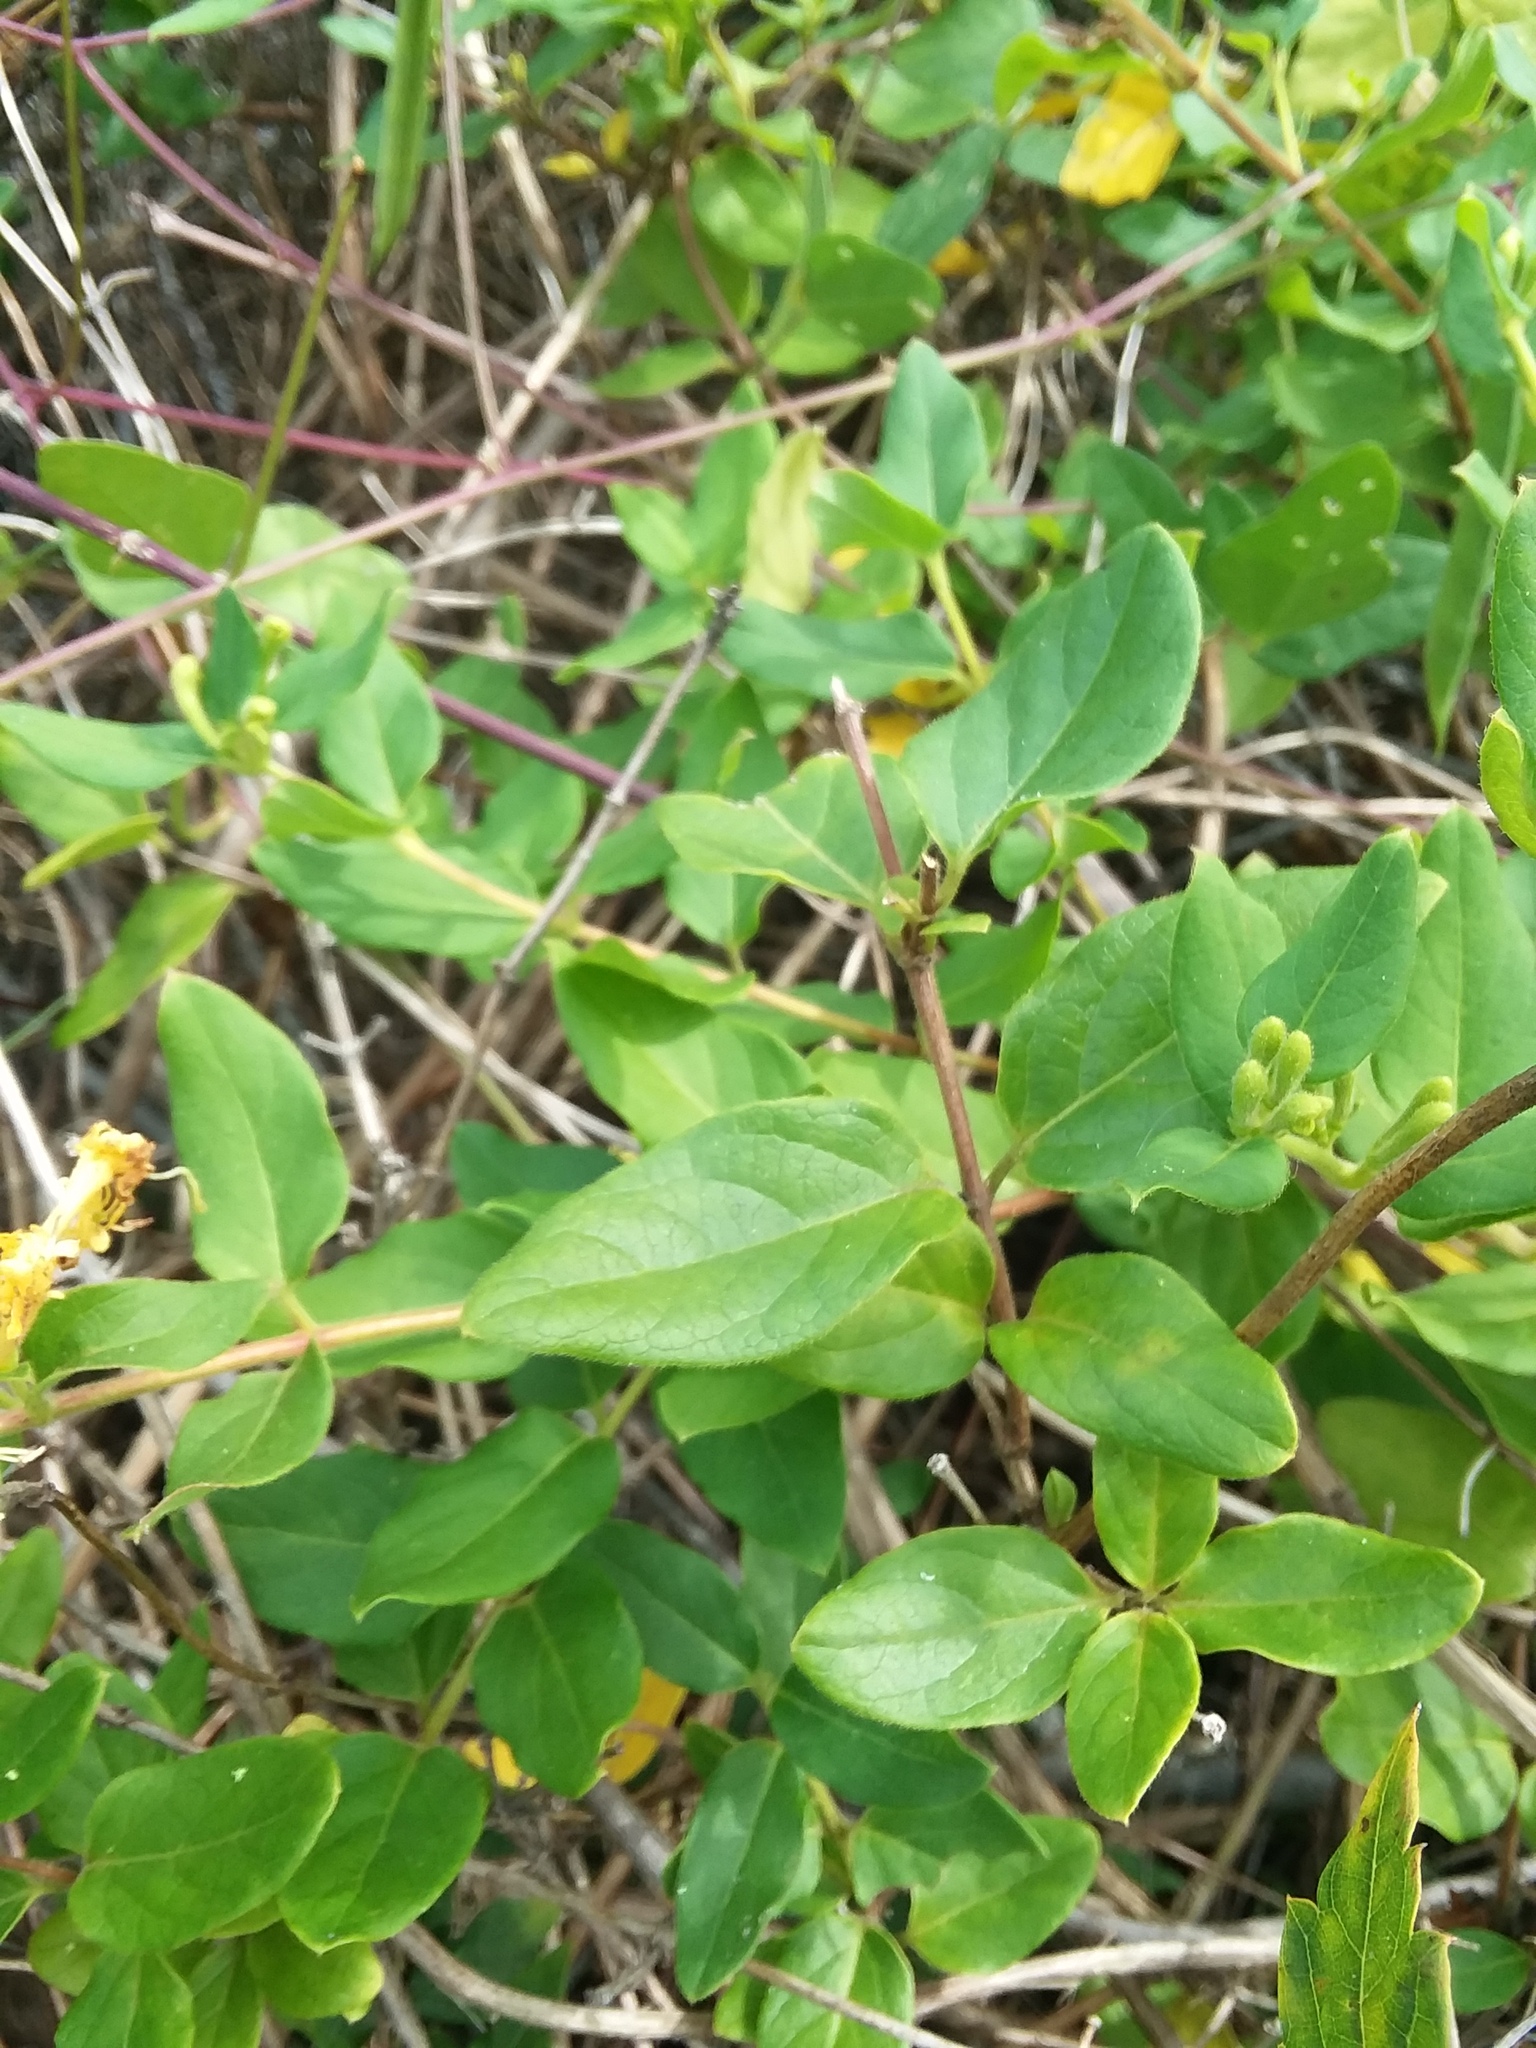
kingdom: Plantae
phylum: Tracheophyta
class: Magnoliopsida
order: Dipsacales
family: Caprifoliaceae
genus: Lonicera
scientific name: Lonicera japonica
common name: Japanese honeysuckle
